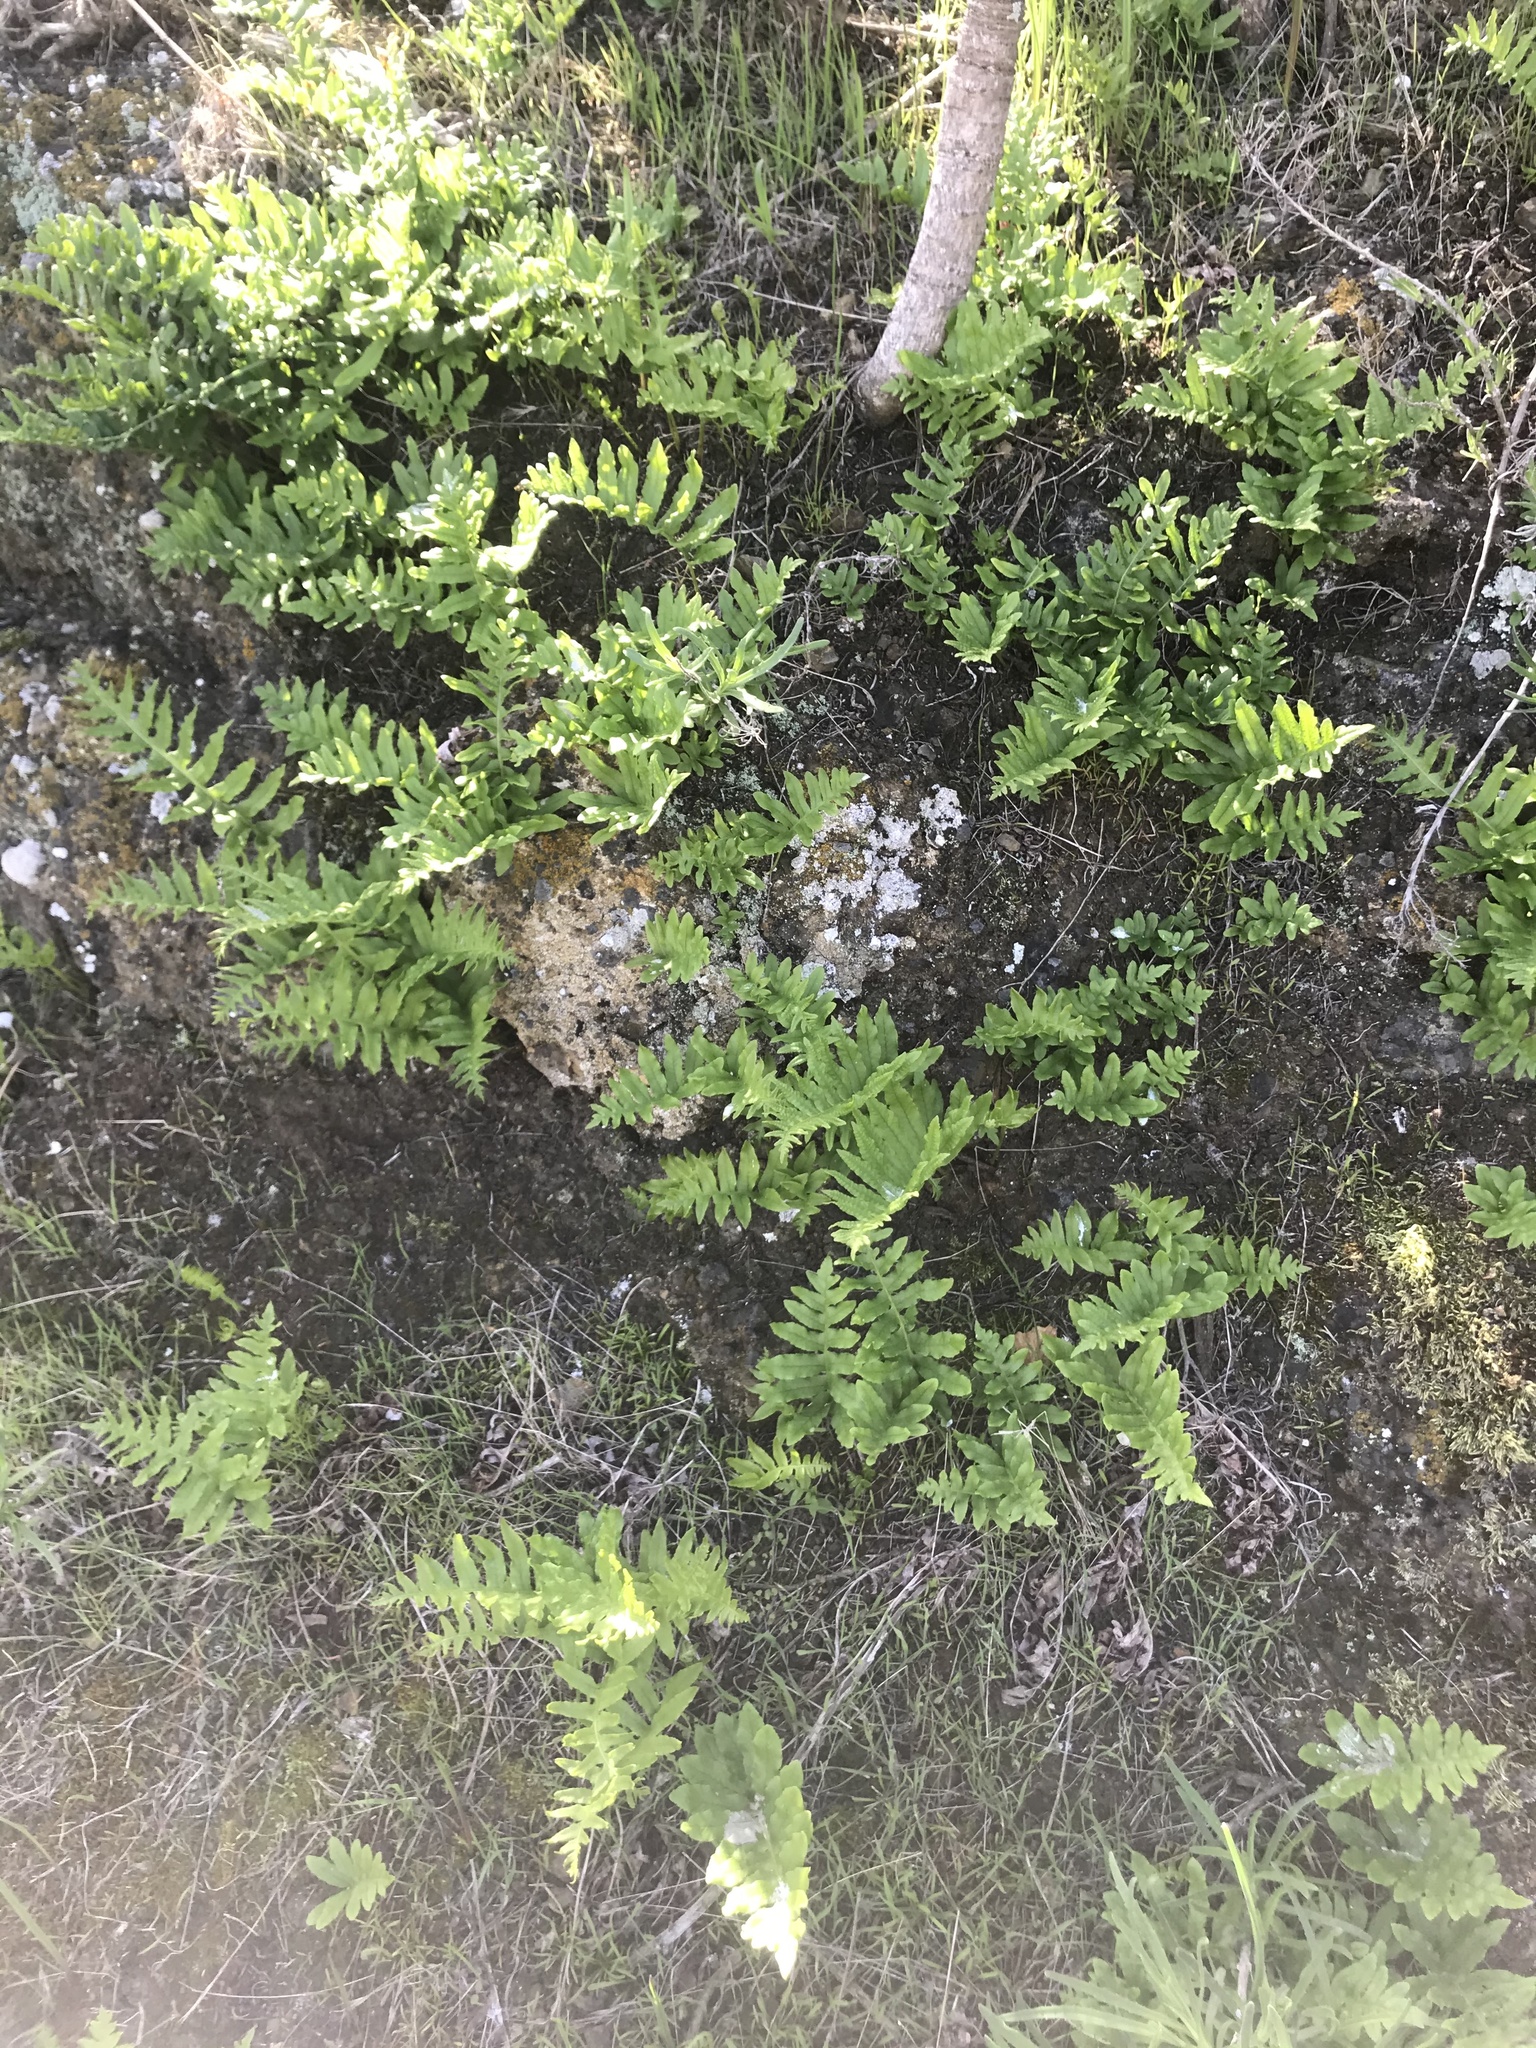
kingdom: Plantae
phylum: Tracheophyta
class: Polypodiopsida
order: Polypodiales
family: Polypodiaceae
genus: Polypodium
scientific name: Polypodium californicum
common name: California polypody
